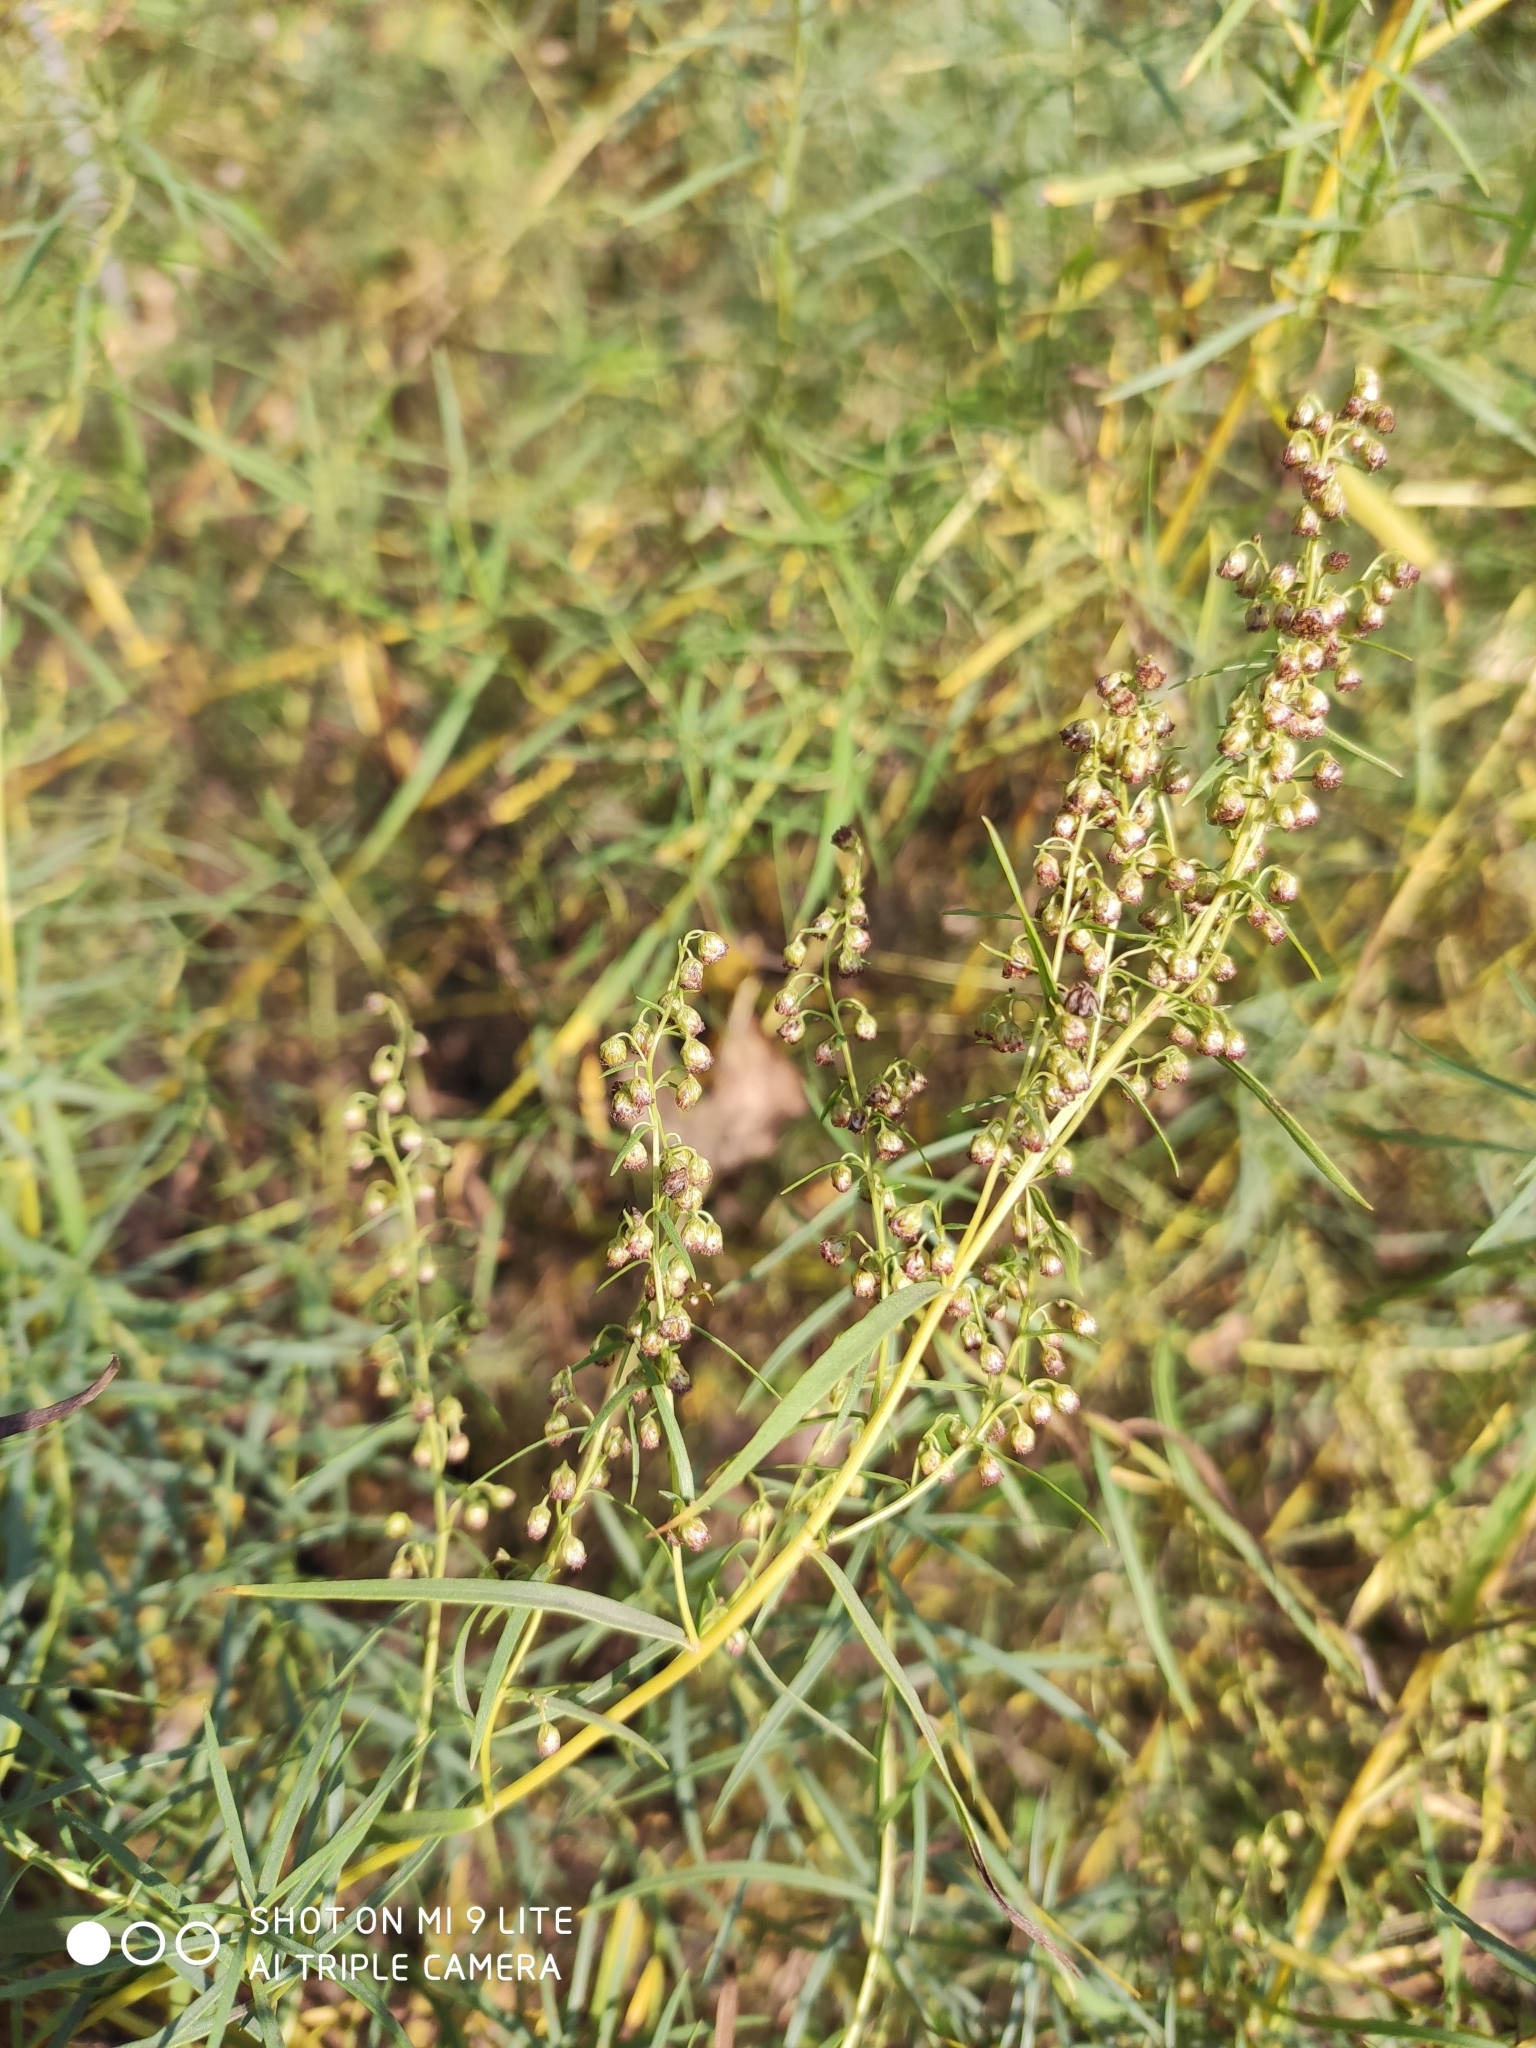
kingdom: Plantae
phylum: Tracheophyta
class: Magnoliopsida
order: Asterales
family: Asteraceae
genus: Artemisia
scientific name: Artemisia dracunculus
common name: Tarragon
